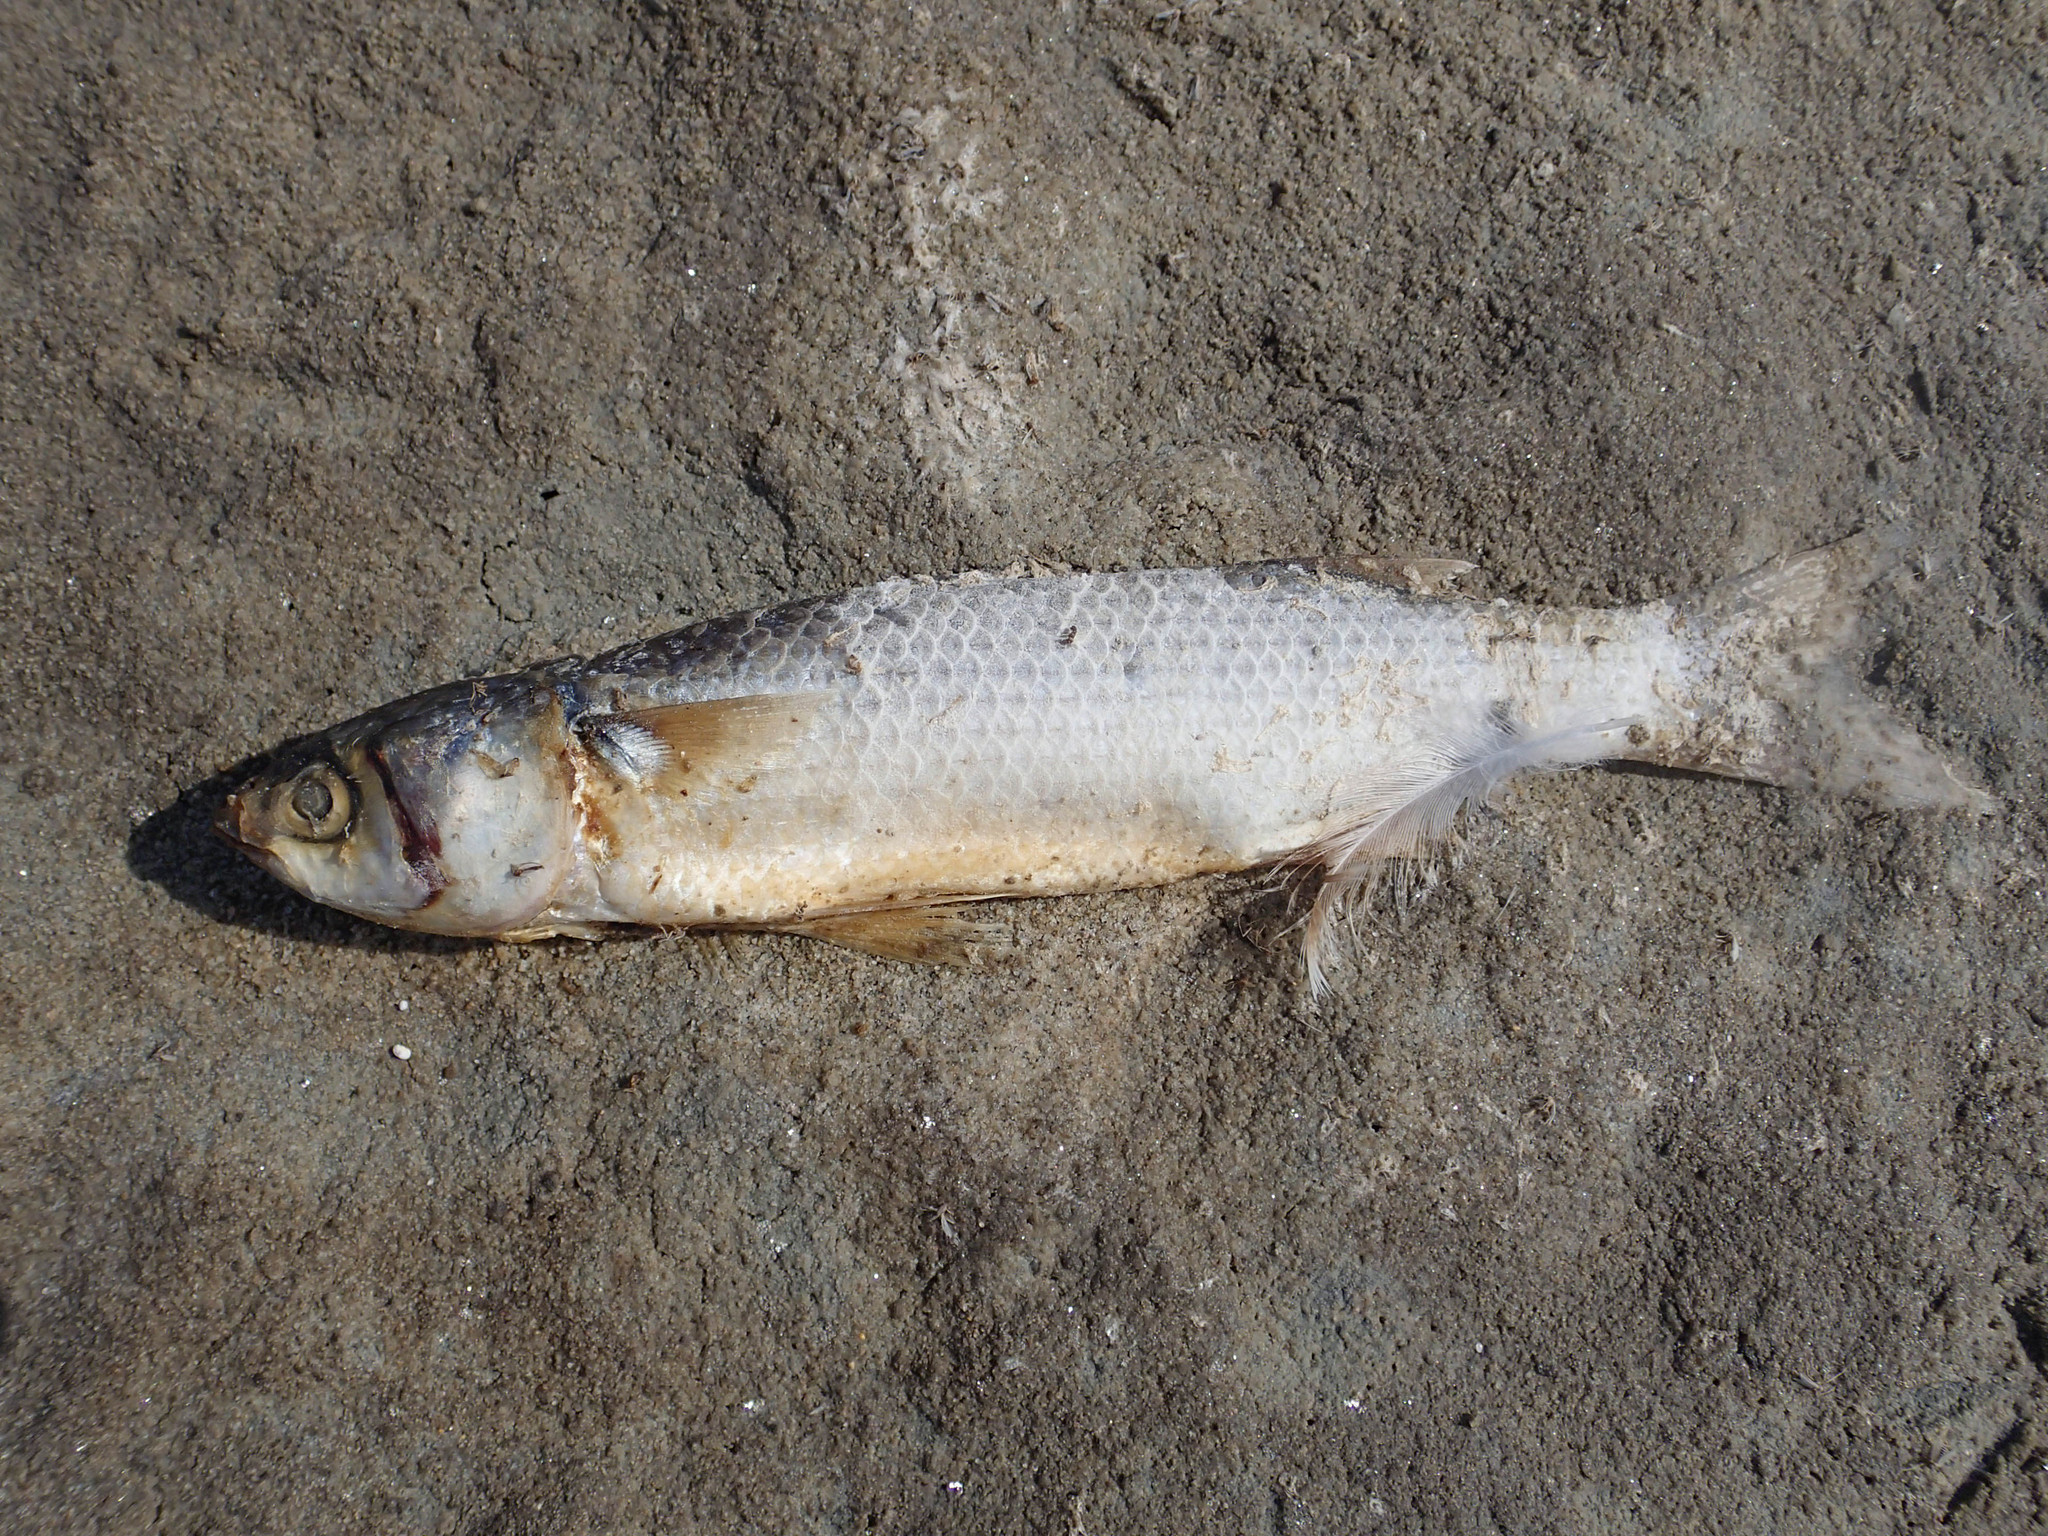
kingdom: Animalia
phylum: Chordata
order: Mugiliformes
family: Mugilidae
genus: Mugil
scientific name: Mugil cephalus
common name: Grey mullet
